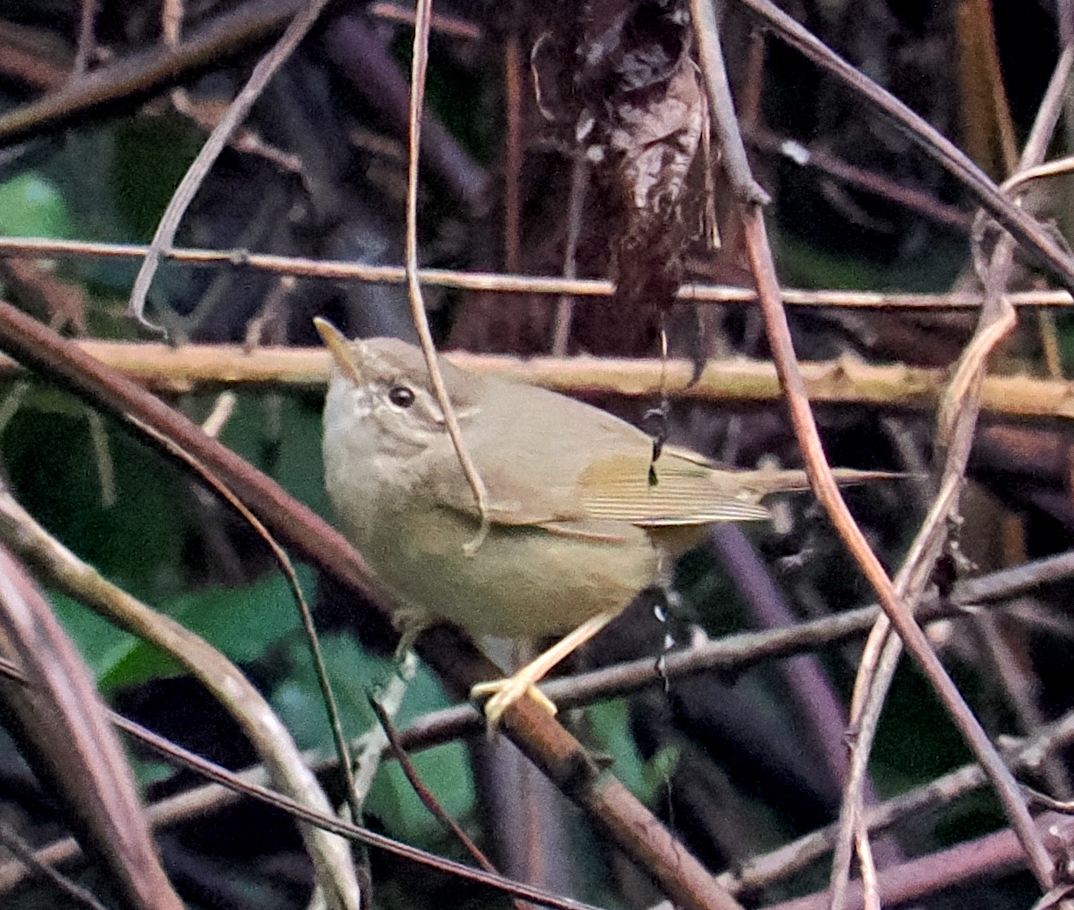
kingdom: Animalia
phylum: Chordata
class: Aves
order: Passeriformes
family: Phylloscopidae
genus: Phylloscopus
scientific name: Phylloscopus schwarzi
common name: Radde's warbler
